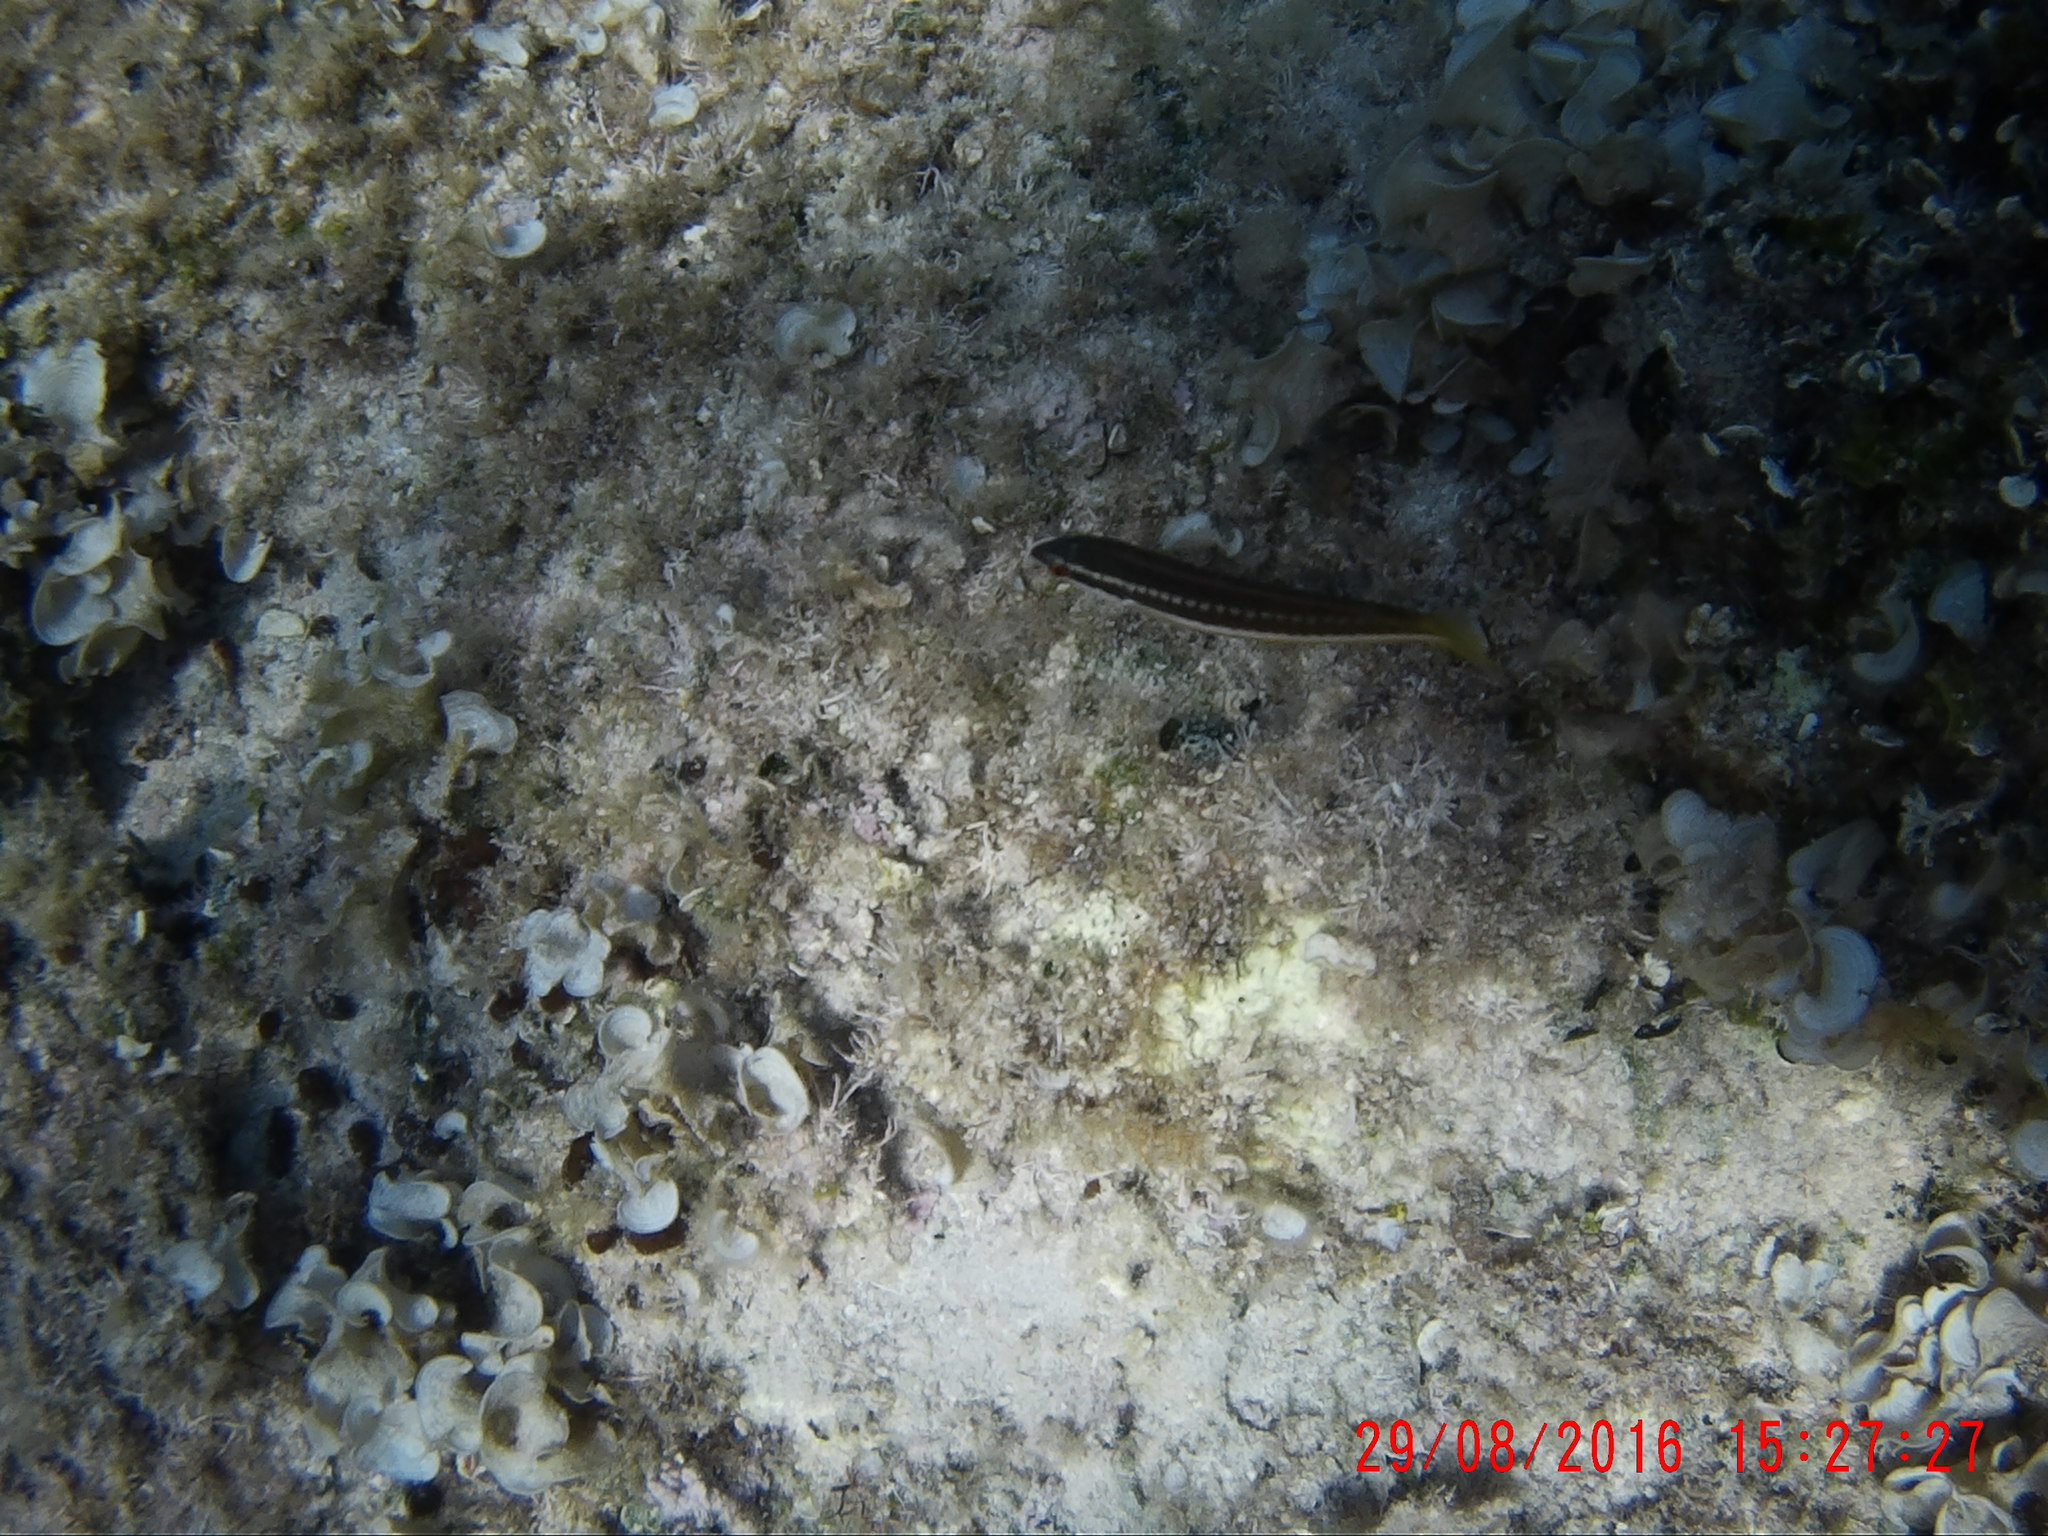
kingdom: Animalia
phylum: Chordata
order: Perciformes
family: Labridae
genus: Coris
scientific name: Coris julis
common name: Rainbow wrasse
